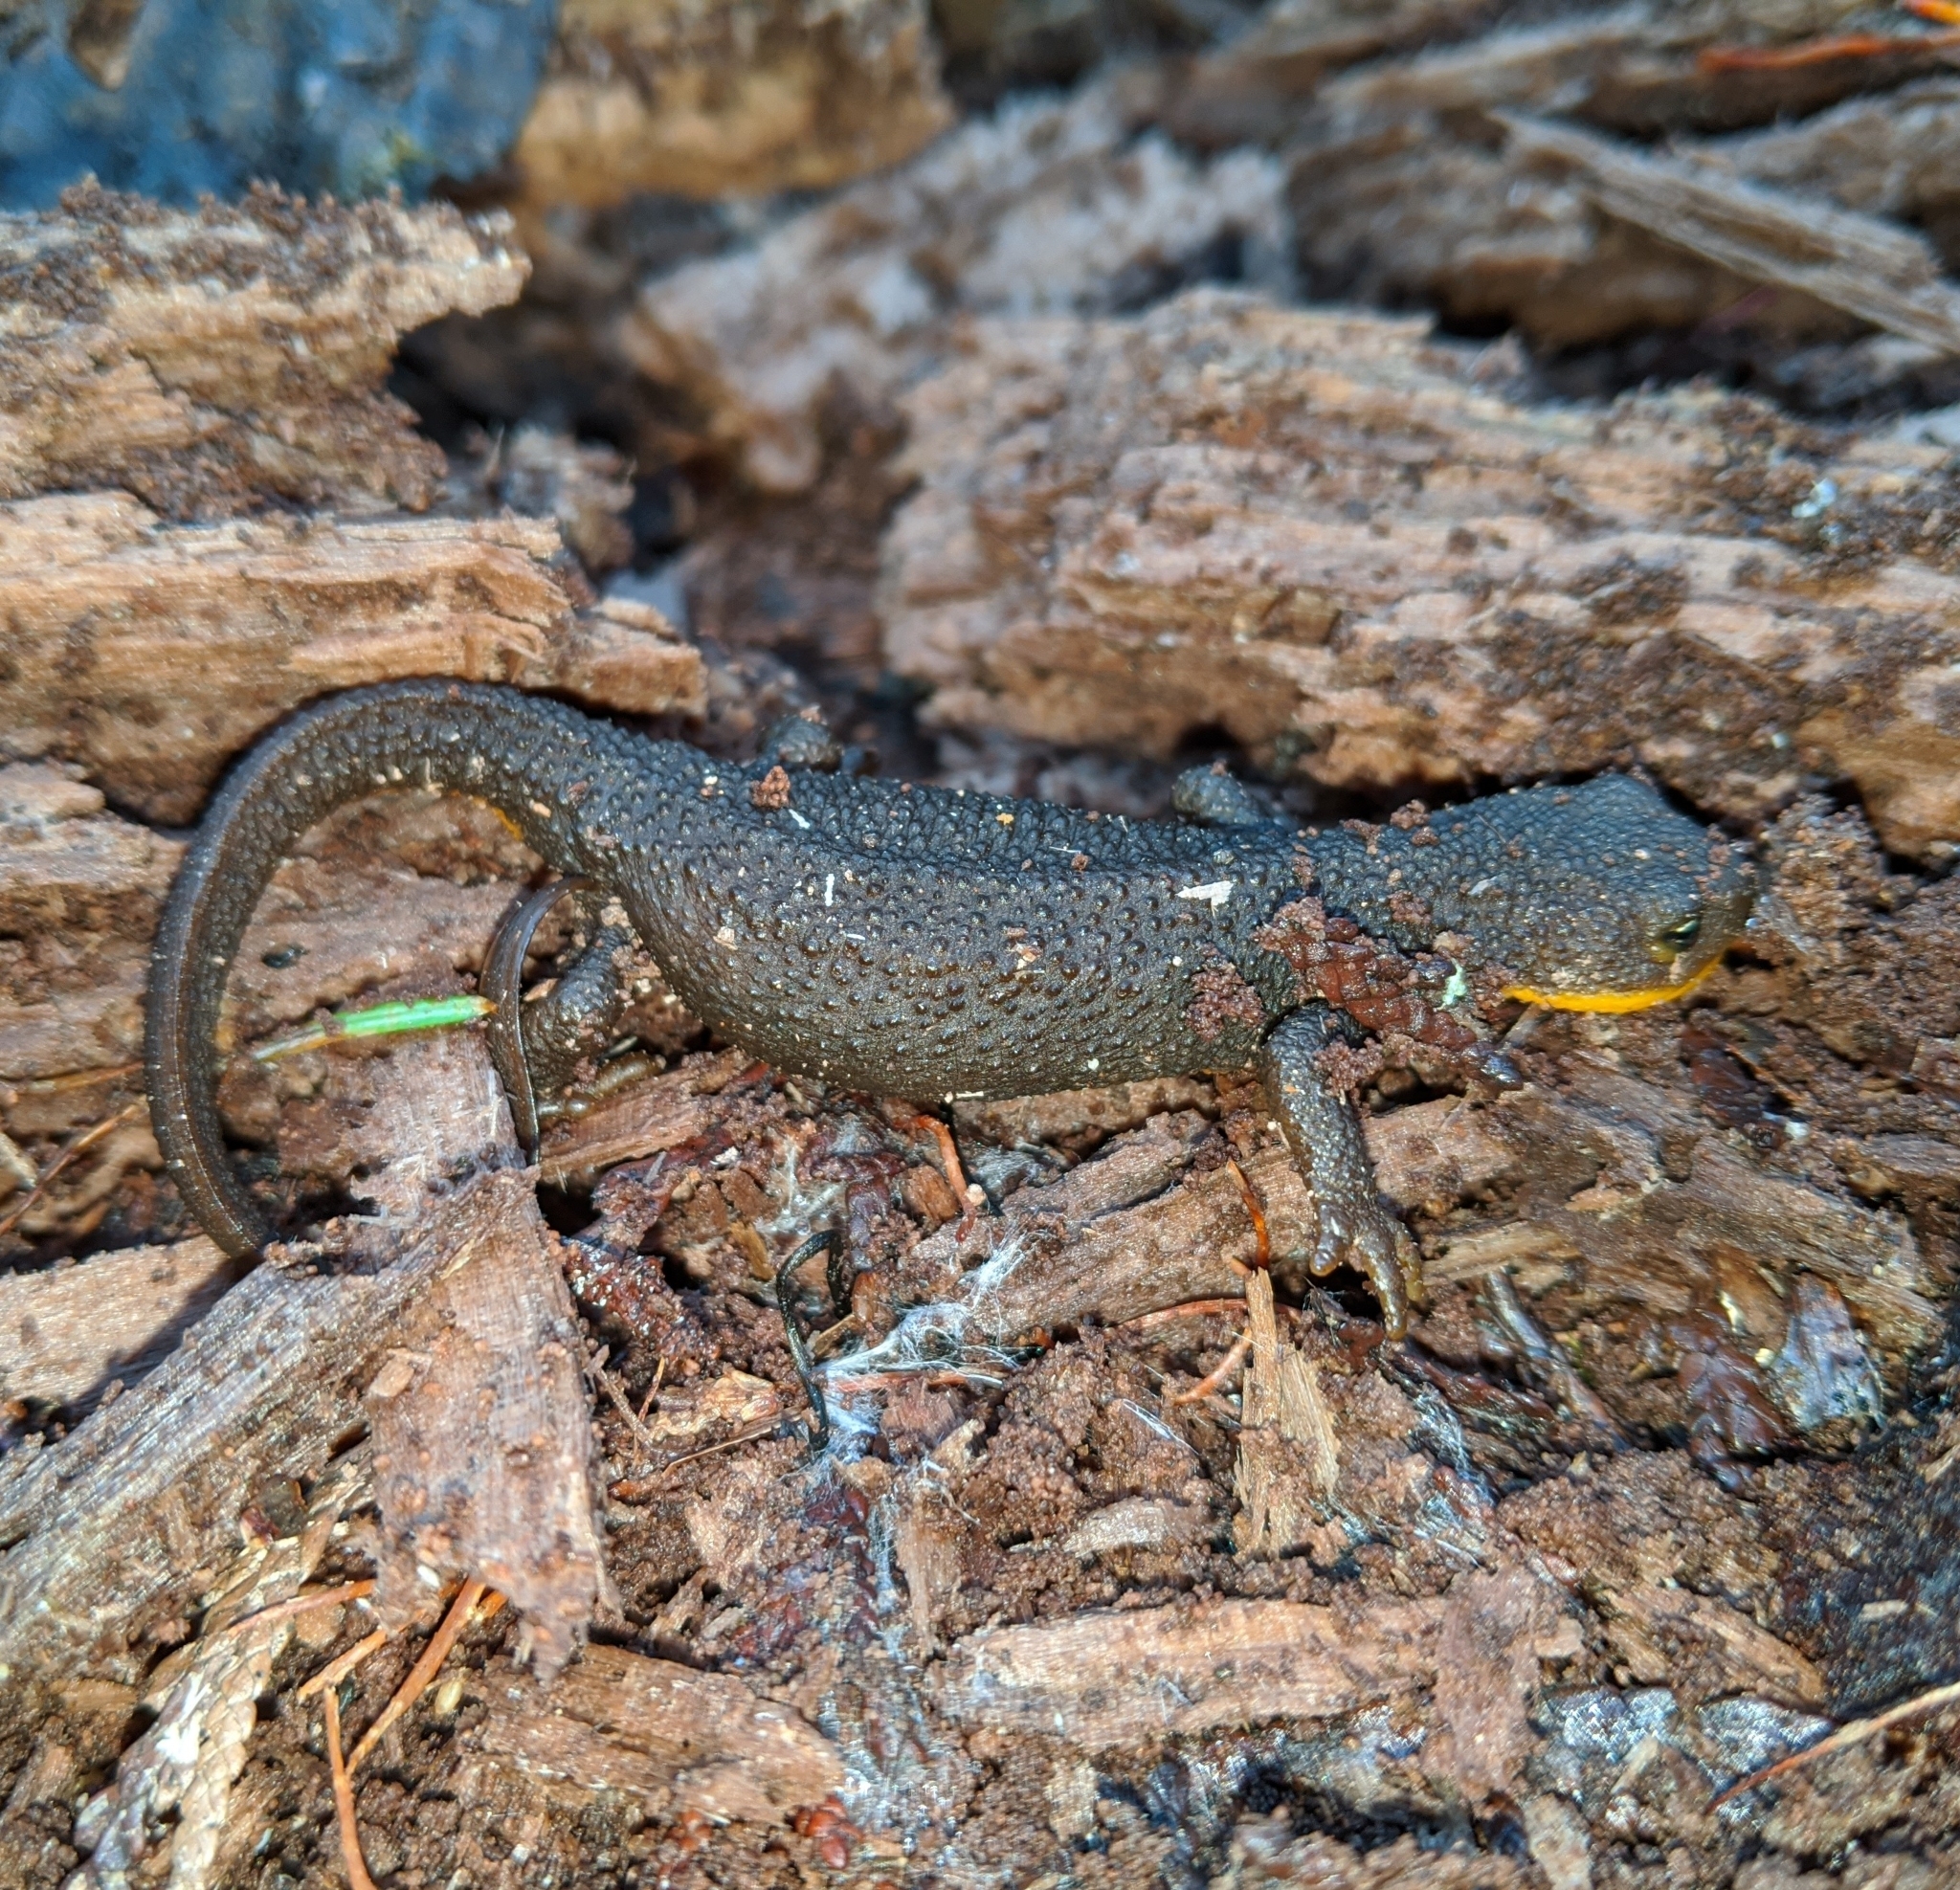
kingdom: Animalia
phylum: Chordata
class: Amphibia
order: Caudata
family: Salamandridae
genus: Taricha
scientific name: Taricha granulosa
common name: Roughskin newt
